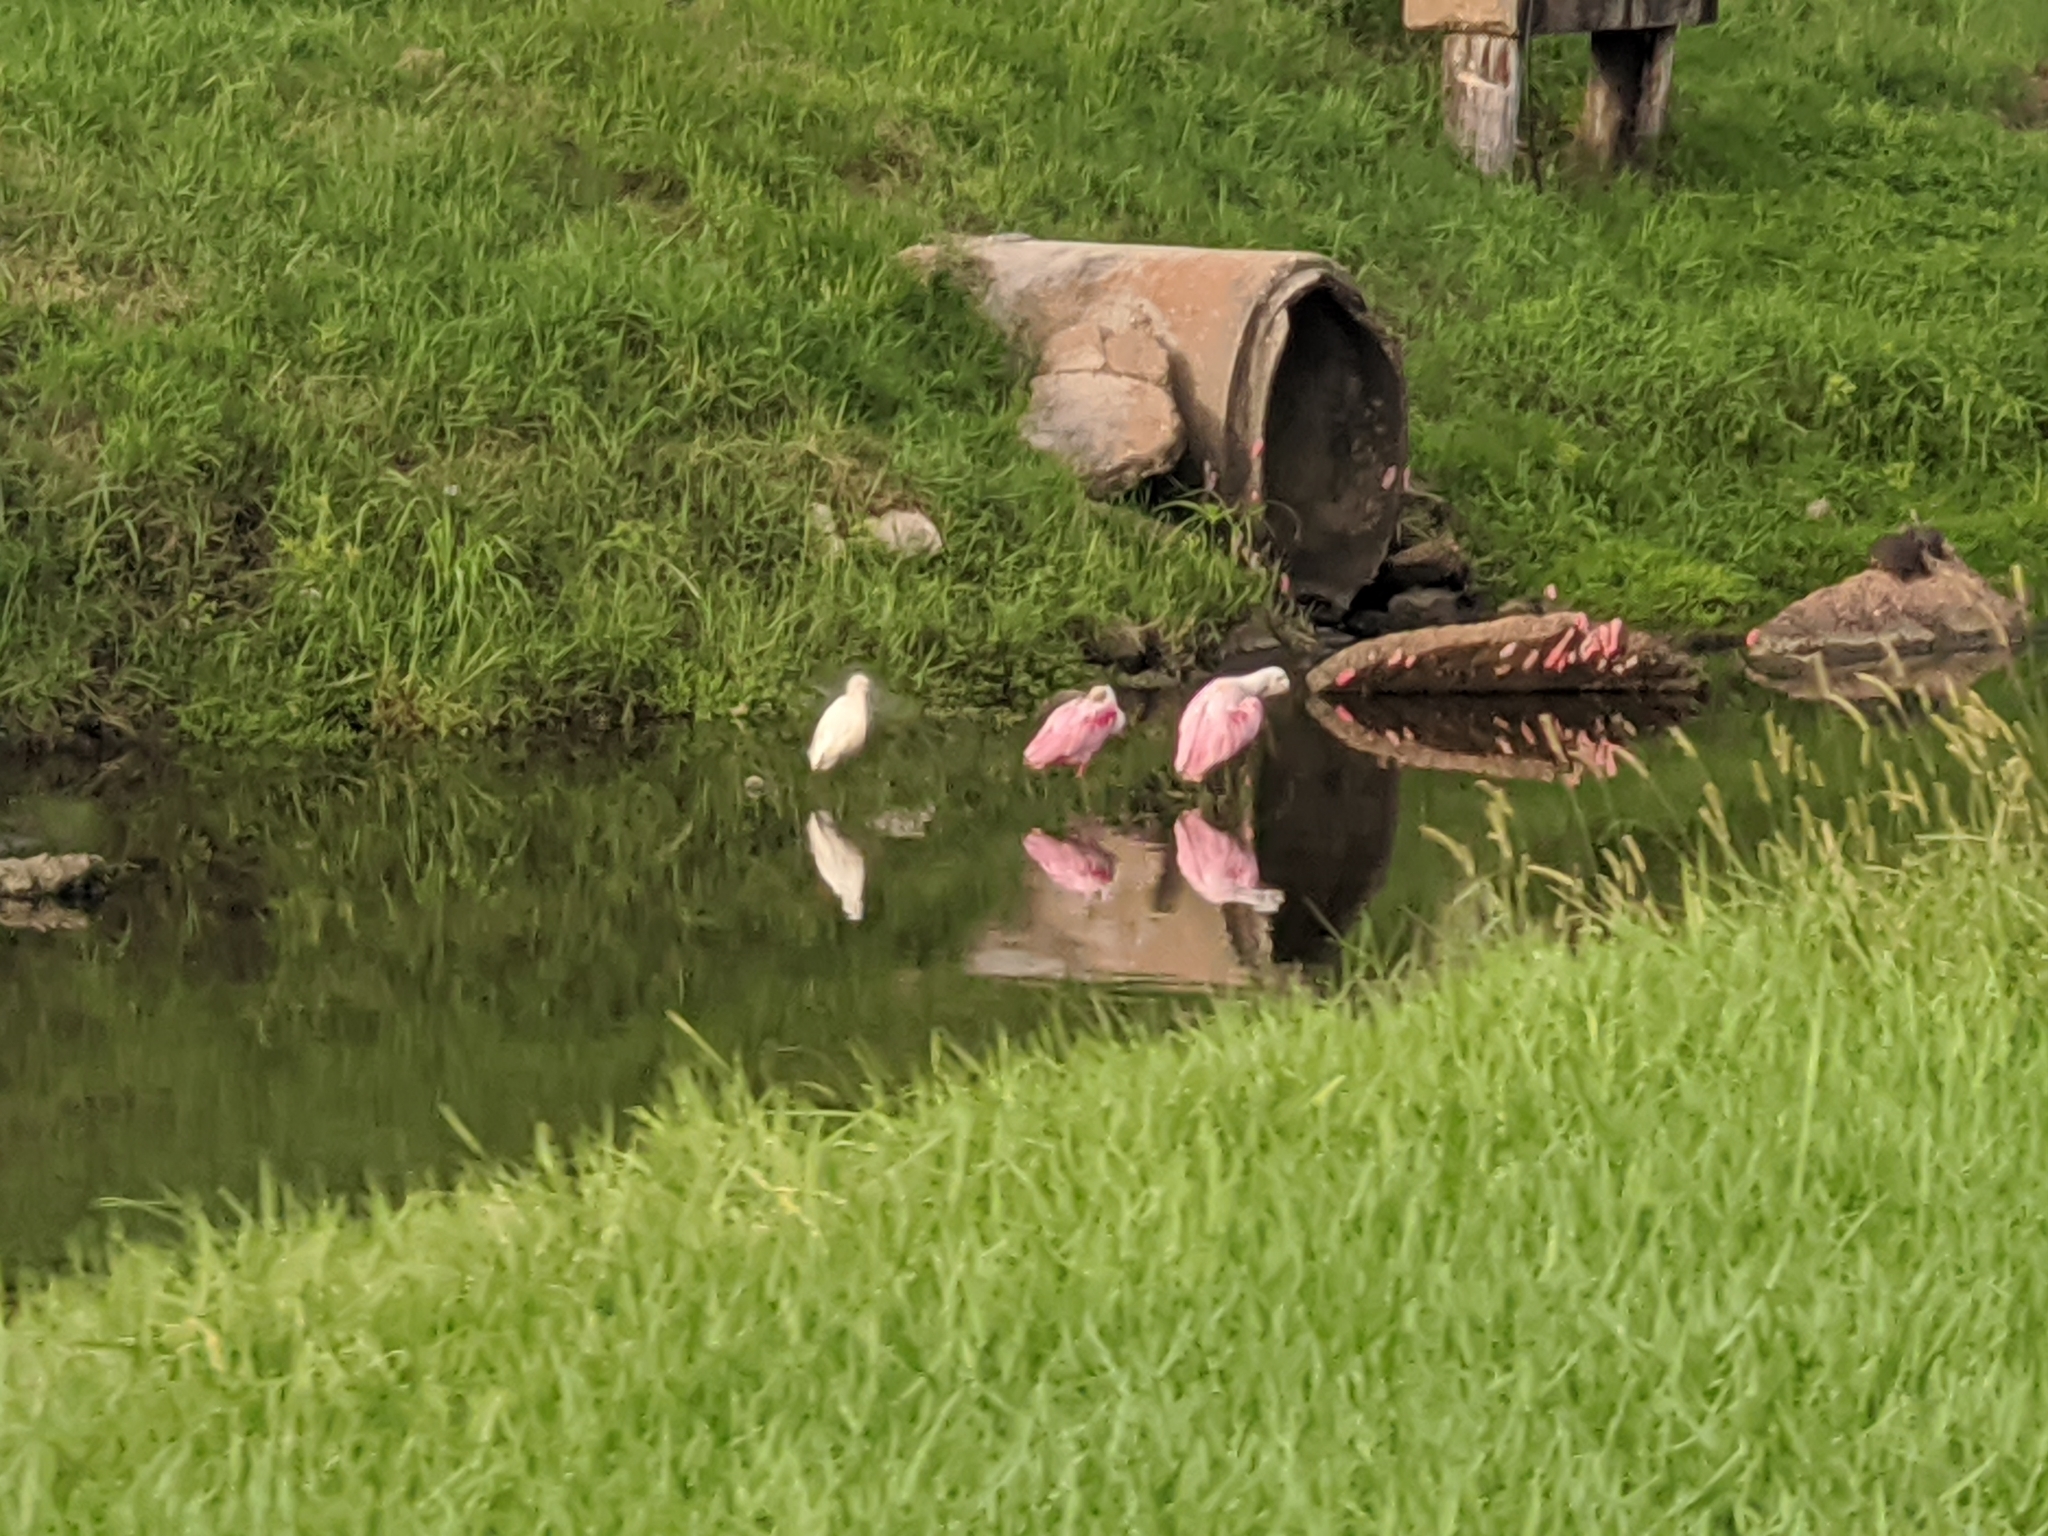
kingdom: Animalia
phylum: Chordata
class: Aves
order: Pelecaniformes
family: Threskiornithidae
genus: Platalea
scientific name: Platalea ajaja
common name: Roseate spoonbill
